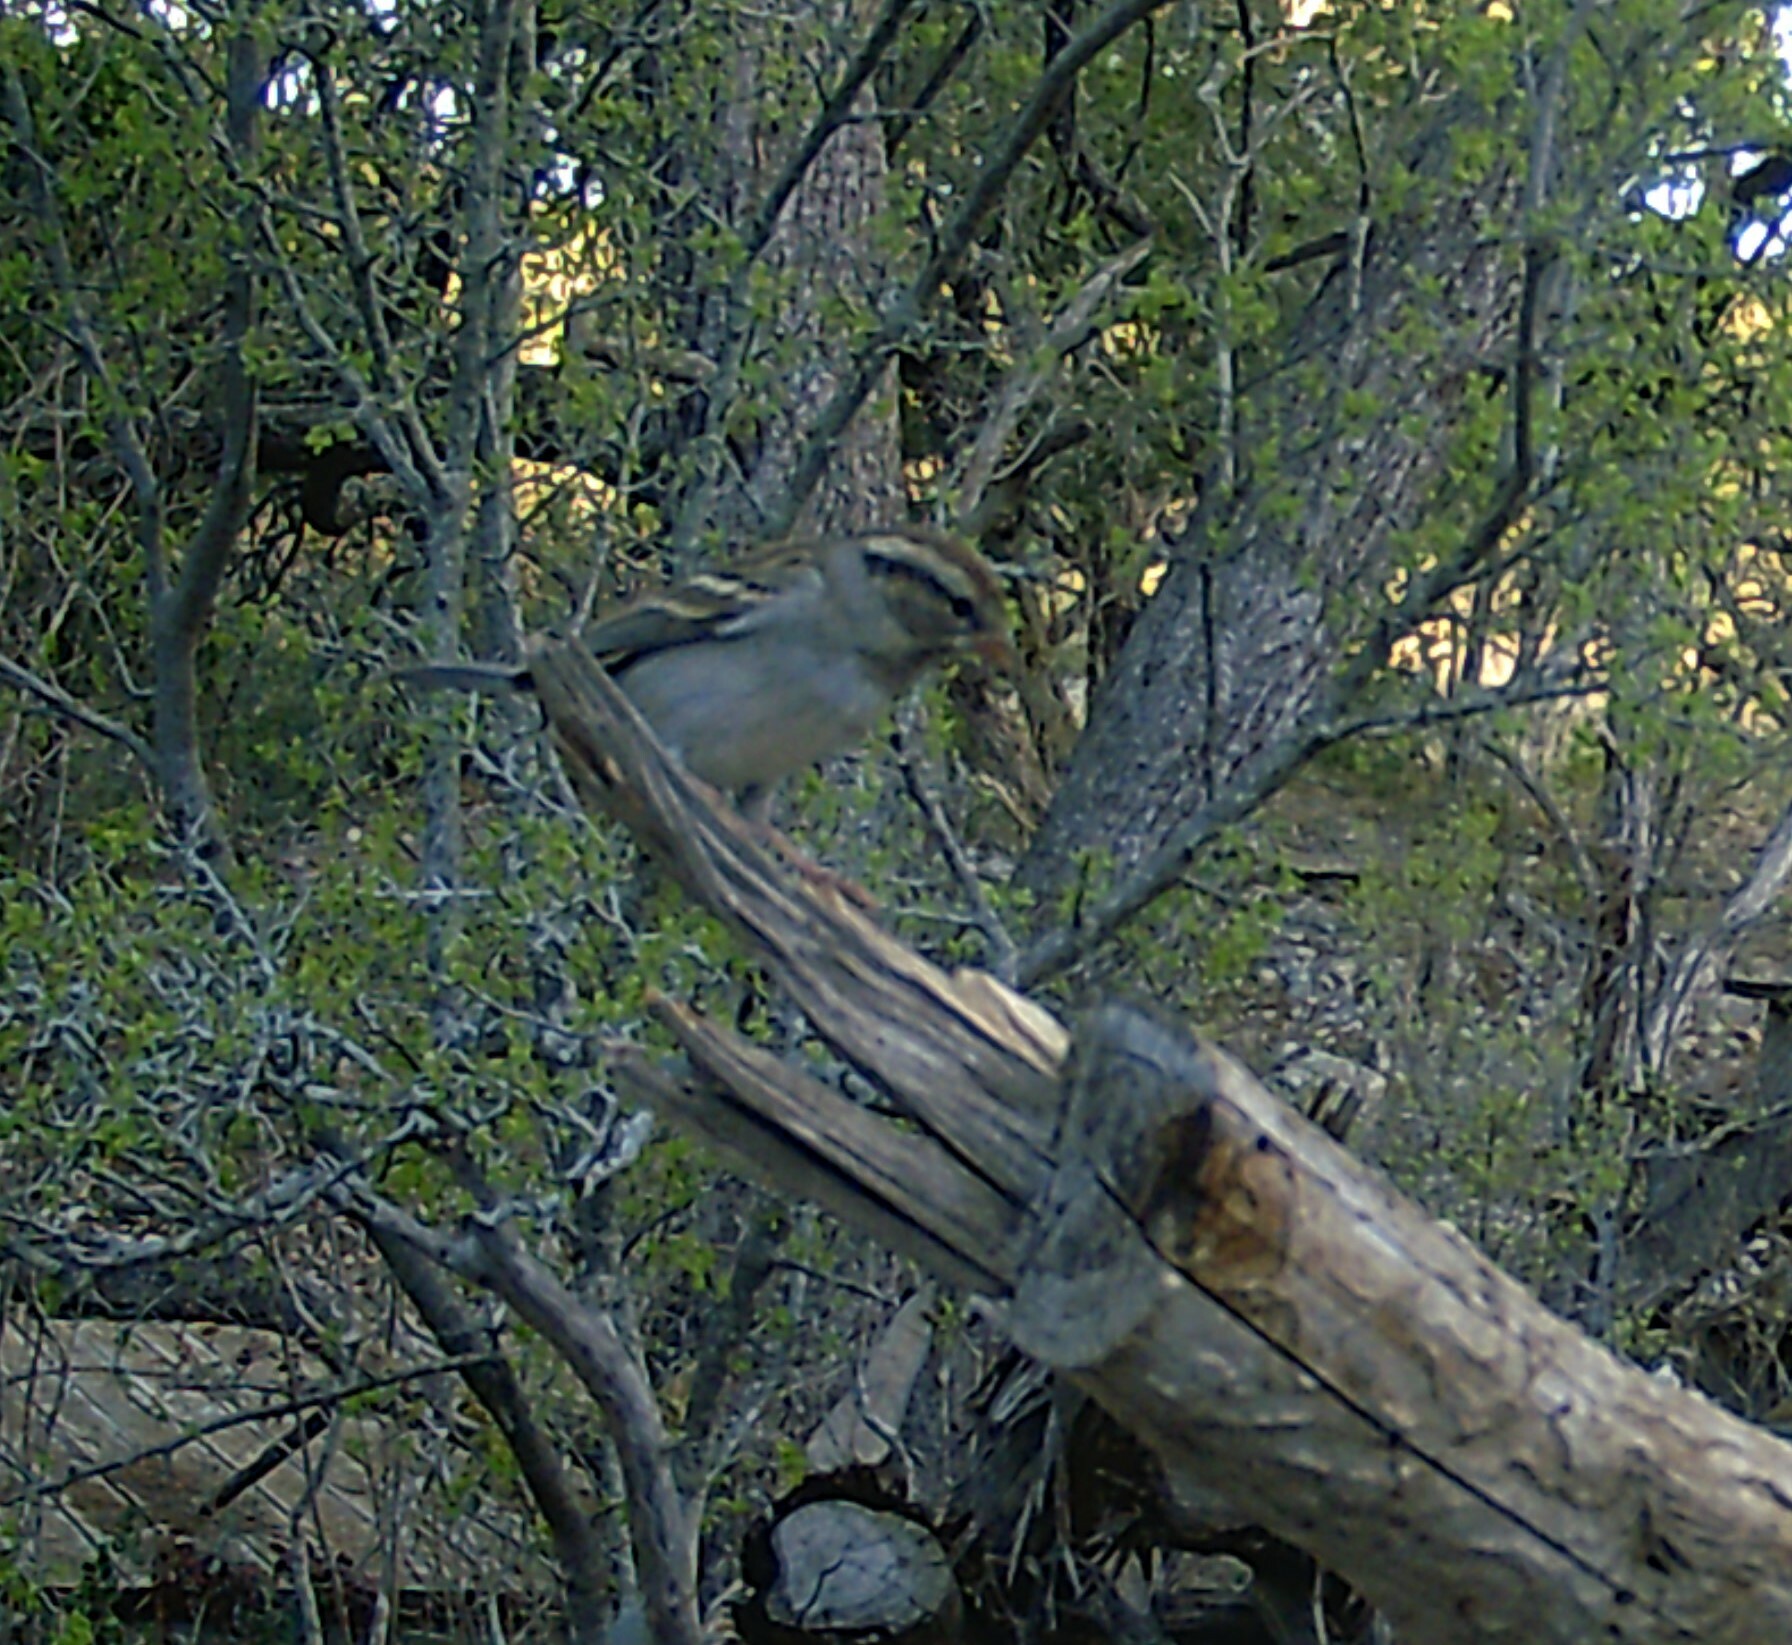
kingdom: Animalia
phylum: Chordata
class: Aves
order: Passeriformes
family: Passerellidae
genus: Spizella
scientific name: Spizella passerina
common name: Chipping sparrow
